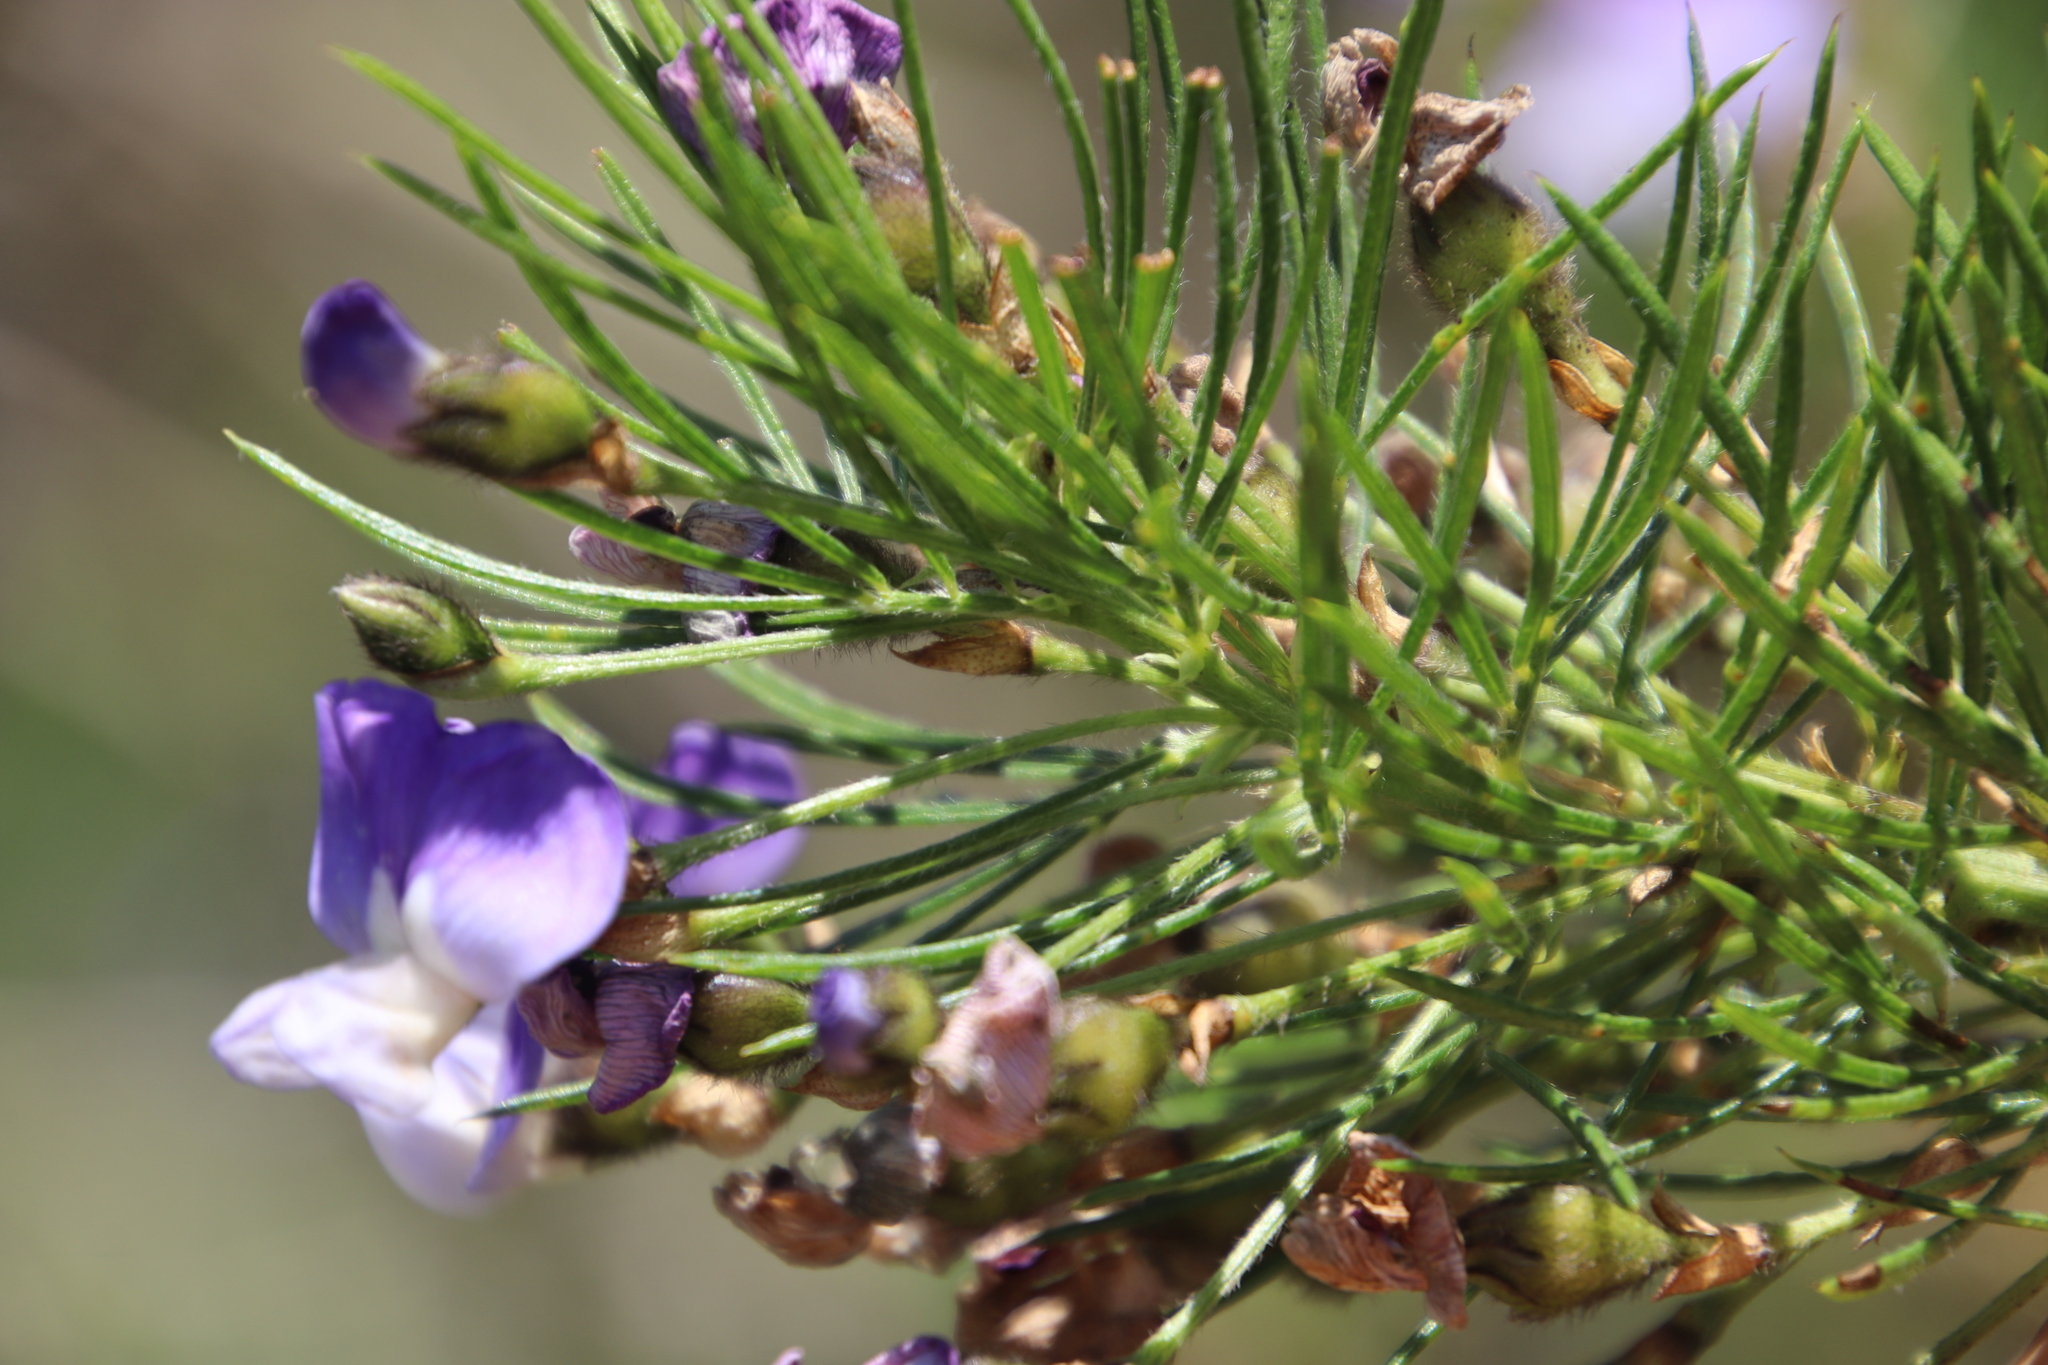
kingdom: Plantae
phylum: Tracheophyta
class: Magnoliopsida
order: Fabales
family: Fabaceae
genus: Psoralea
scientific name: Psoralea arborea
